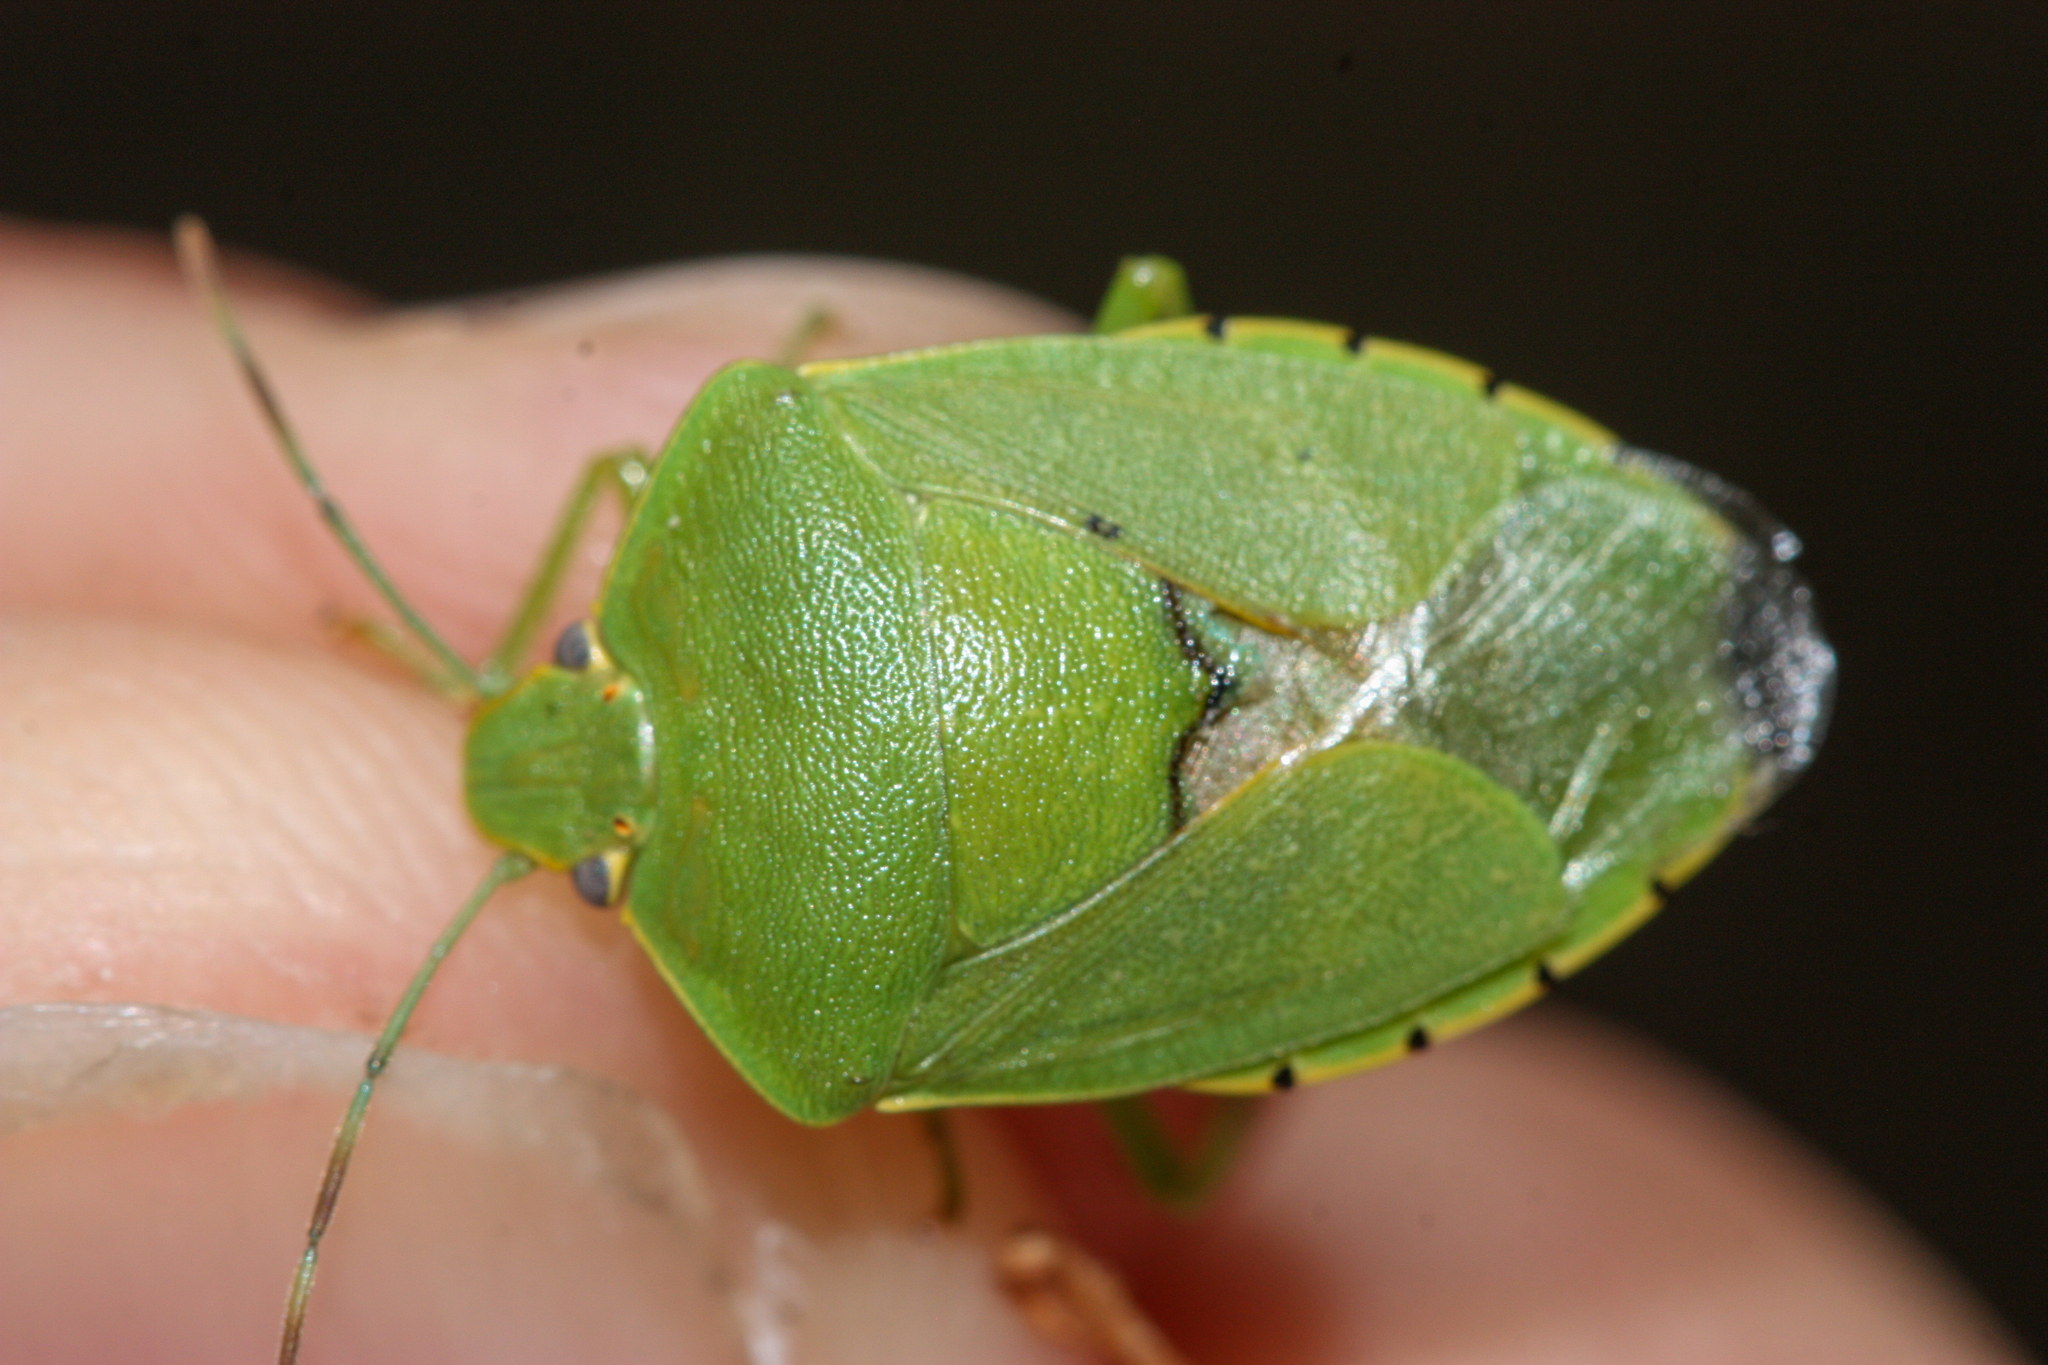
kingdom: Animalia
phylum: Arthropoda
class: Insecta
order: Hemiptera
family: Pentatomidae
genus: Chinavia
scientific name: Chinavia hilaris
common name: Green stink bug
